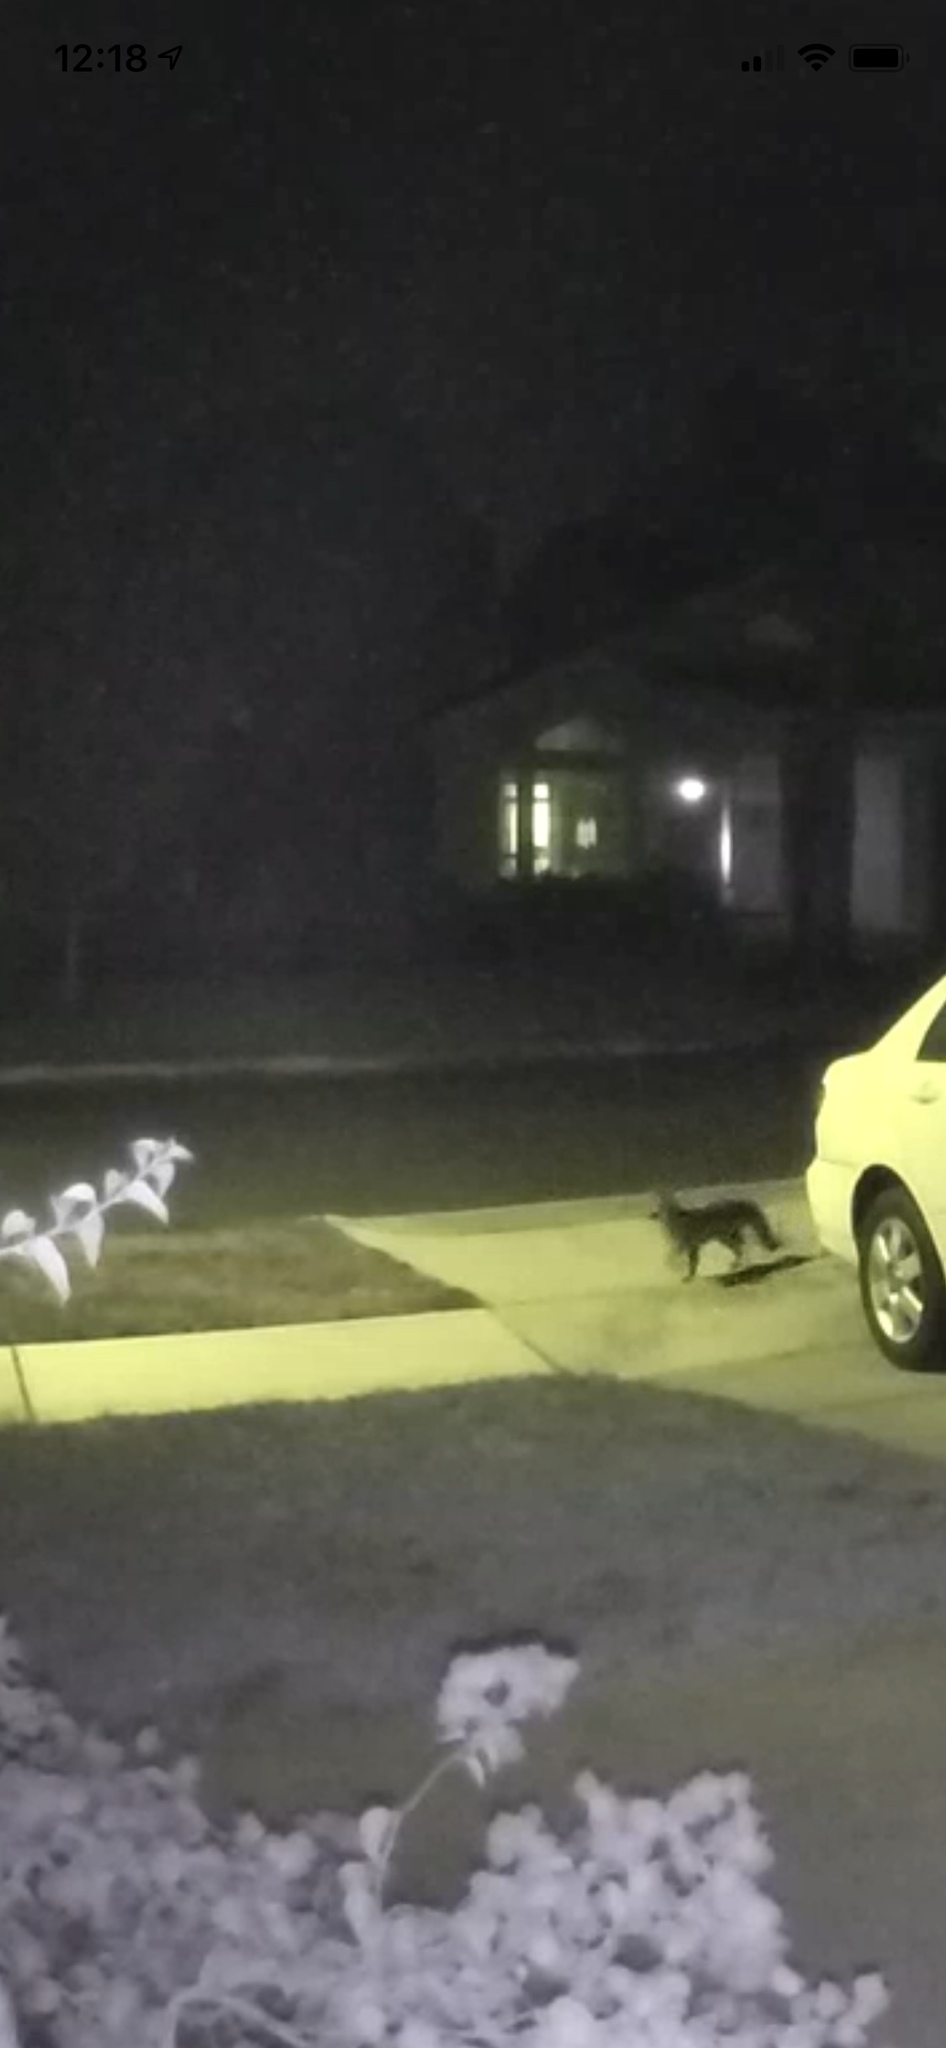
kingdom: Animalia
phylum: Chordata
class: Mammalia
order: Carnivora
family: Canidae
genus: Urocyon
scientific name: Urocyon cinereoargenteus
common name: Gray fox
